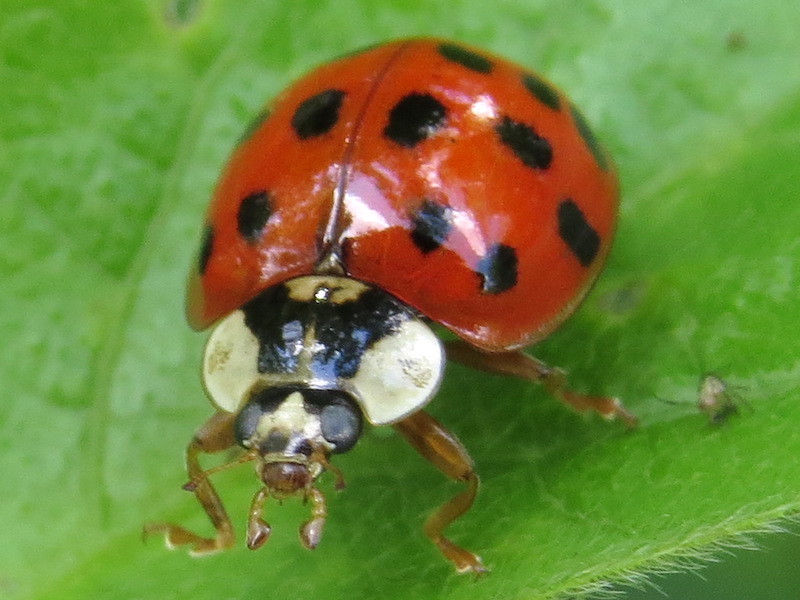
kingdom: Animalia
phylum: Arthropoda
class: Insecta
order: Coleoptera
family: Coccinellidae
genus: Harmonia
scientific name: Harmonia axyridis
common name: Harlequin ladybird
